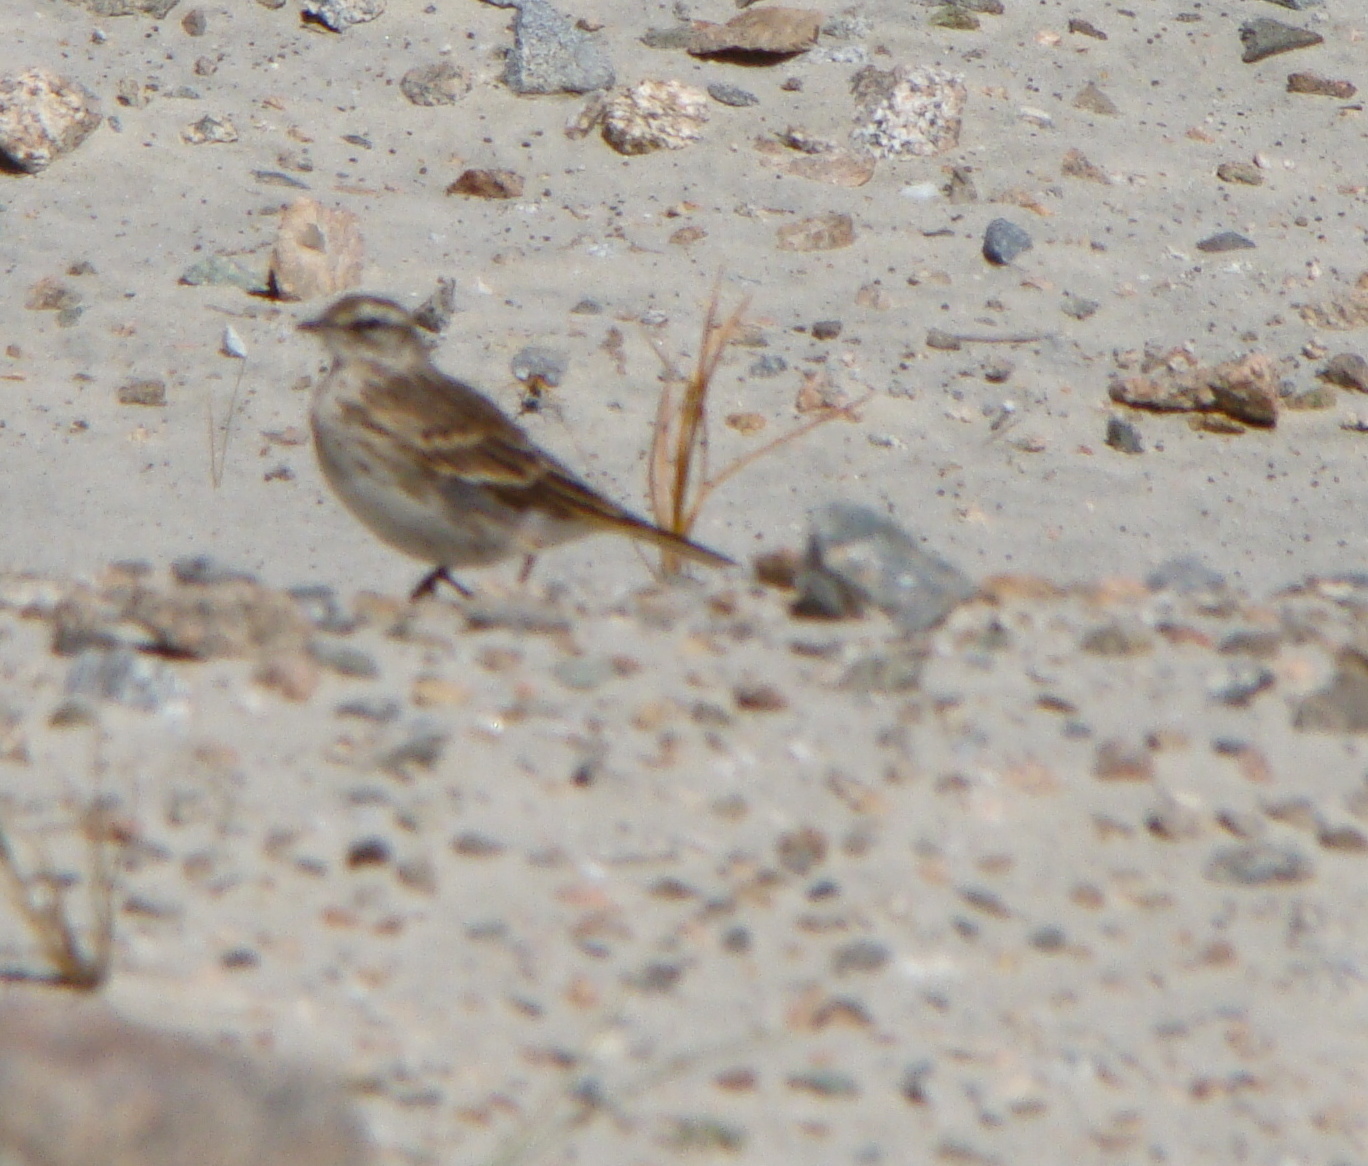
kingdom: Animalia
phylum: Chordata
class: Aves
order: Passeriformes
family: Motacillidae
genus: Anthus
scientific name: Anthus novaeseelandiae
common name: New zealand pipit
